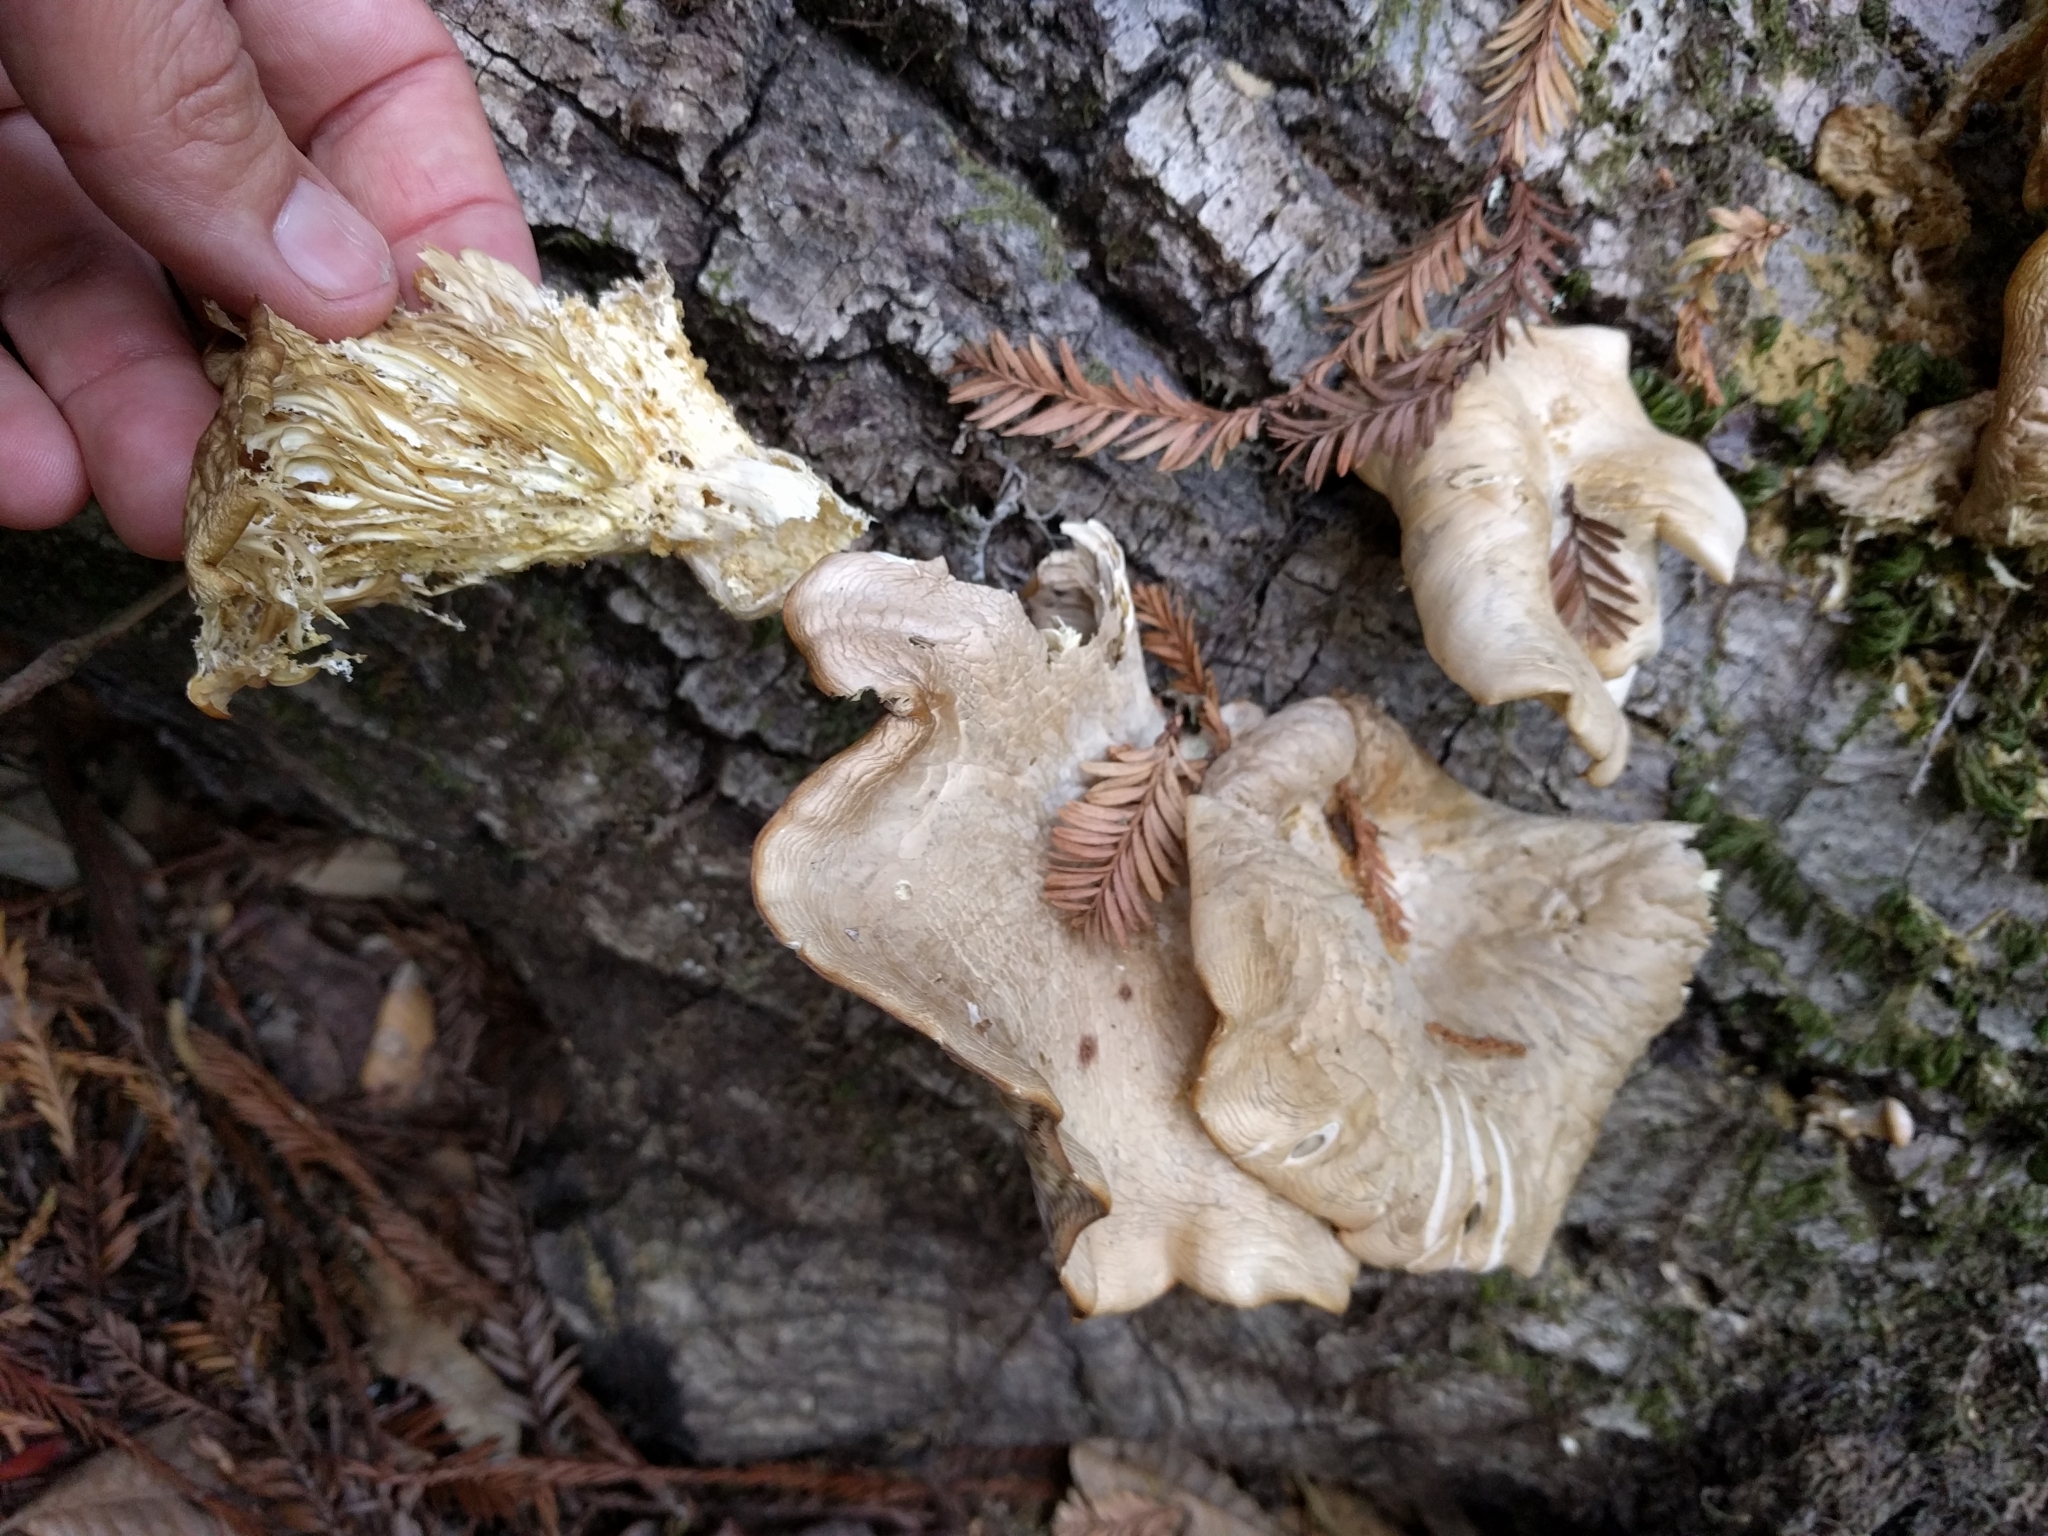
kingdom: Fungi
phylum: Basidiomycota
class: Agaricomycetes
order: Agaricales
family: Pleurotaceae
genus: Pleurotus
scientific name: Pleurotus ostreatus
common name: Oyster mushroom
